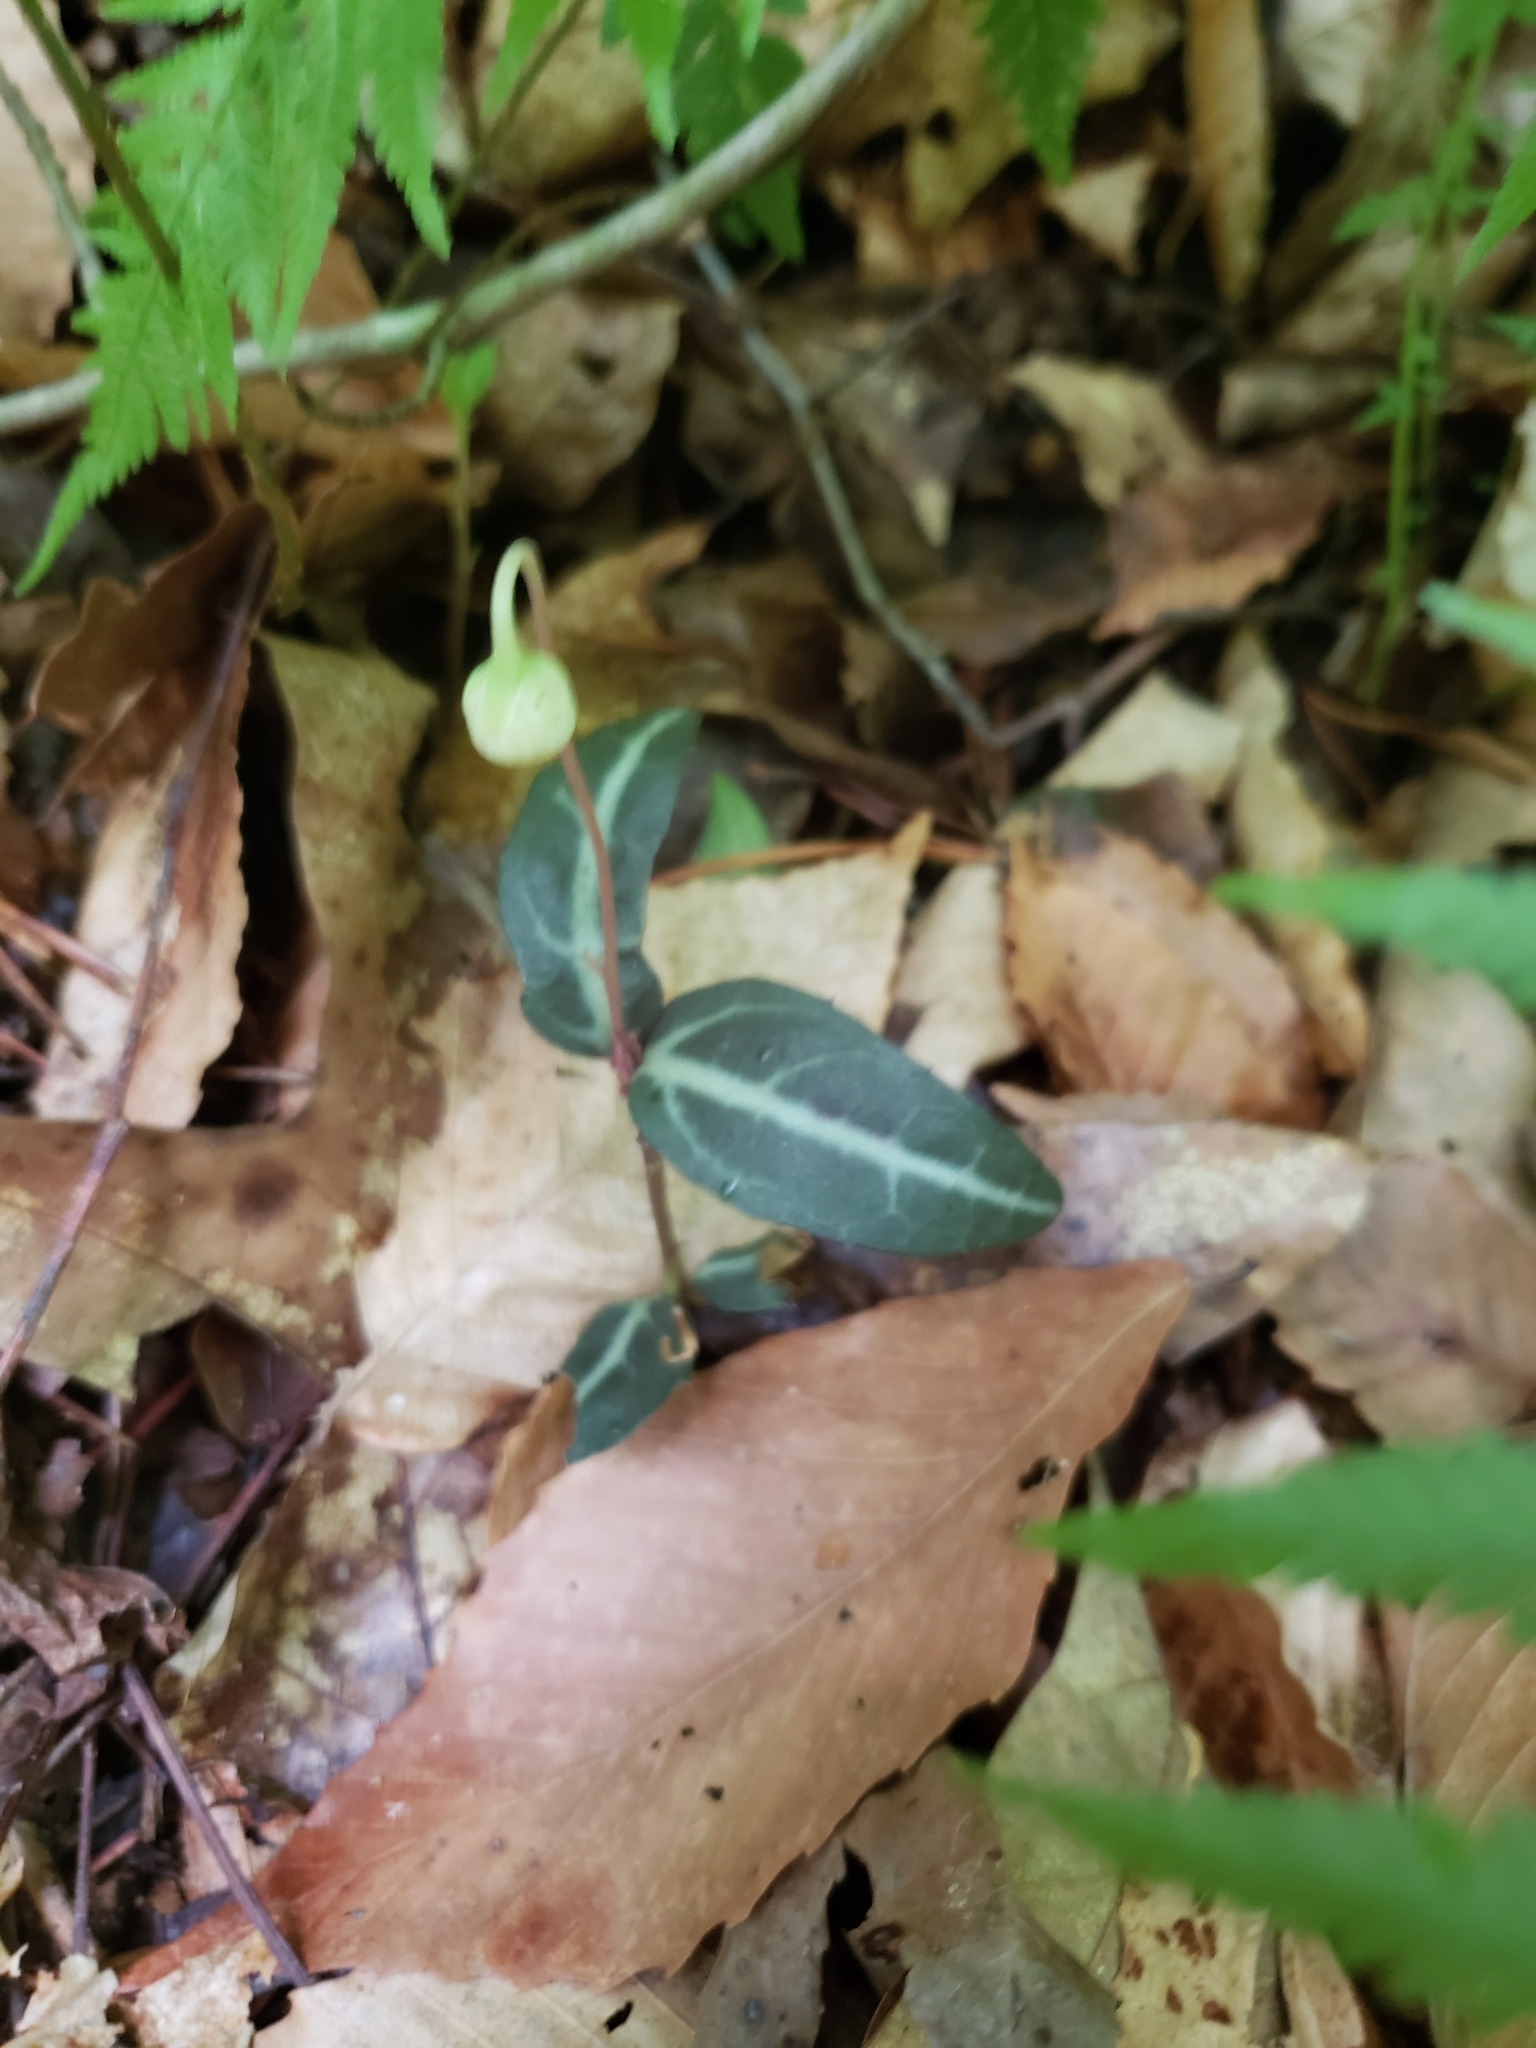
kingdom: Plantae
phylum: Tracheophyta
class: Magnoliopsida
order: Ericales
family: Ericaceae
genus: Chimaphila
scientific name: Chimaphila maculata
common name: Spotted pipsissewa
